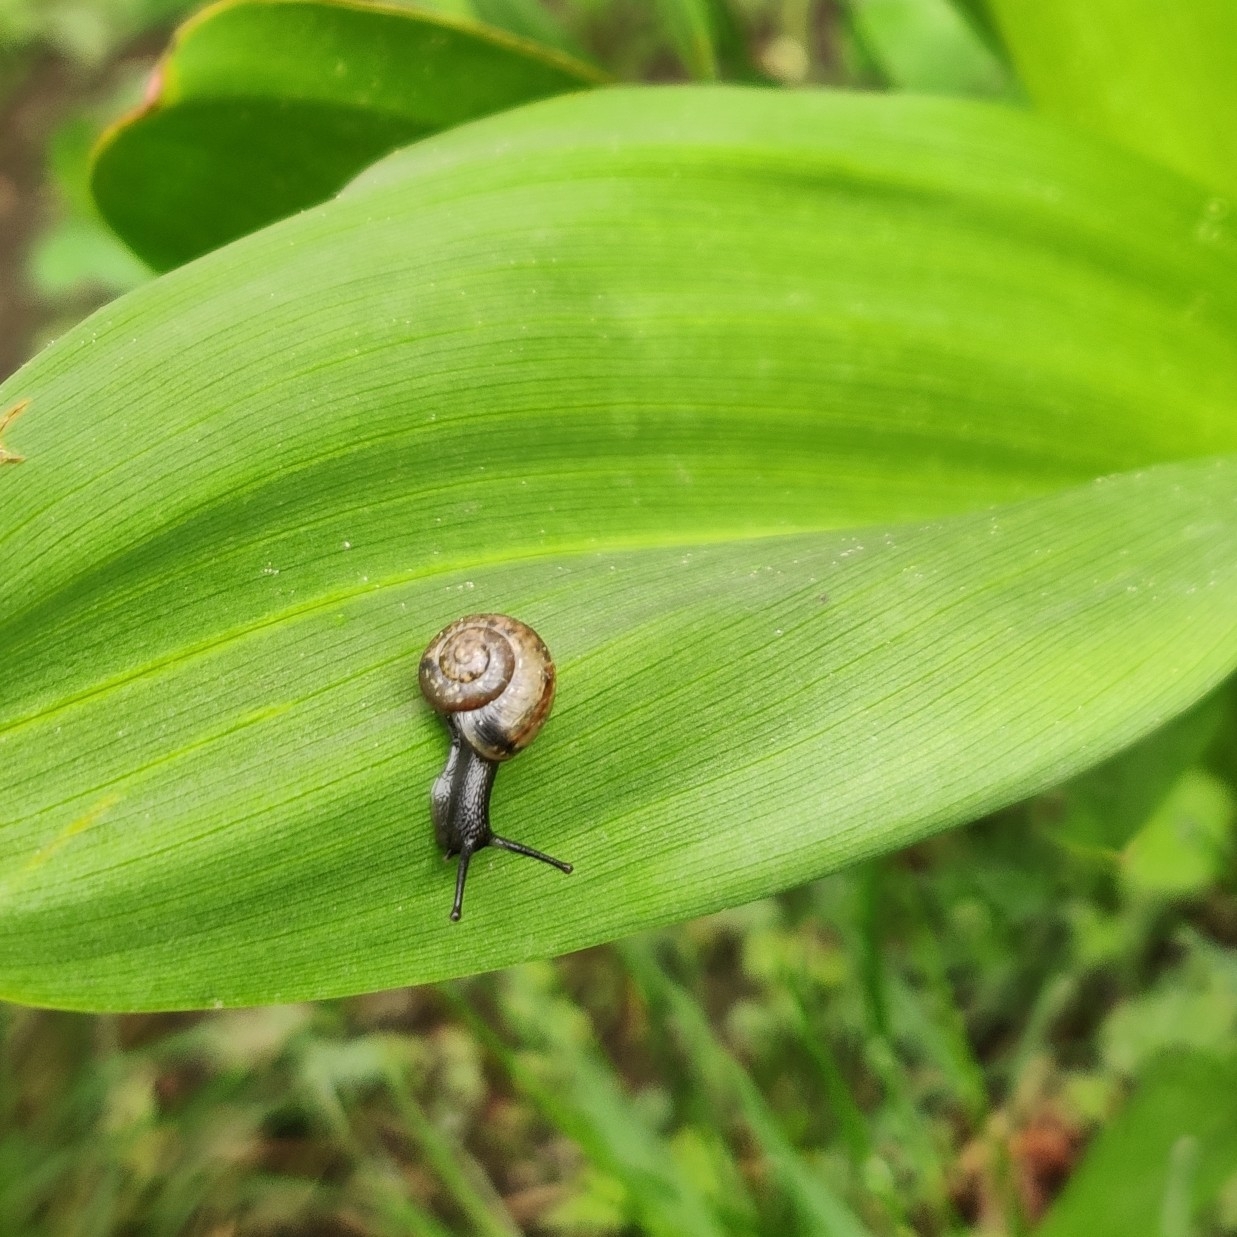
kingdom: Animalia
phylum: Mollusca
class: Gastropoda
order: Stylommatophora
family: Helicidae
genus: Arianta
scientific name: Arianta arbustorum
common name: Copse snail
